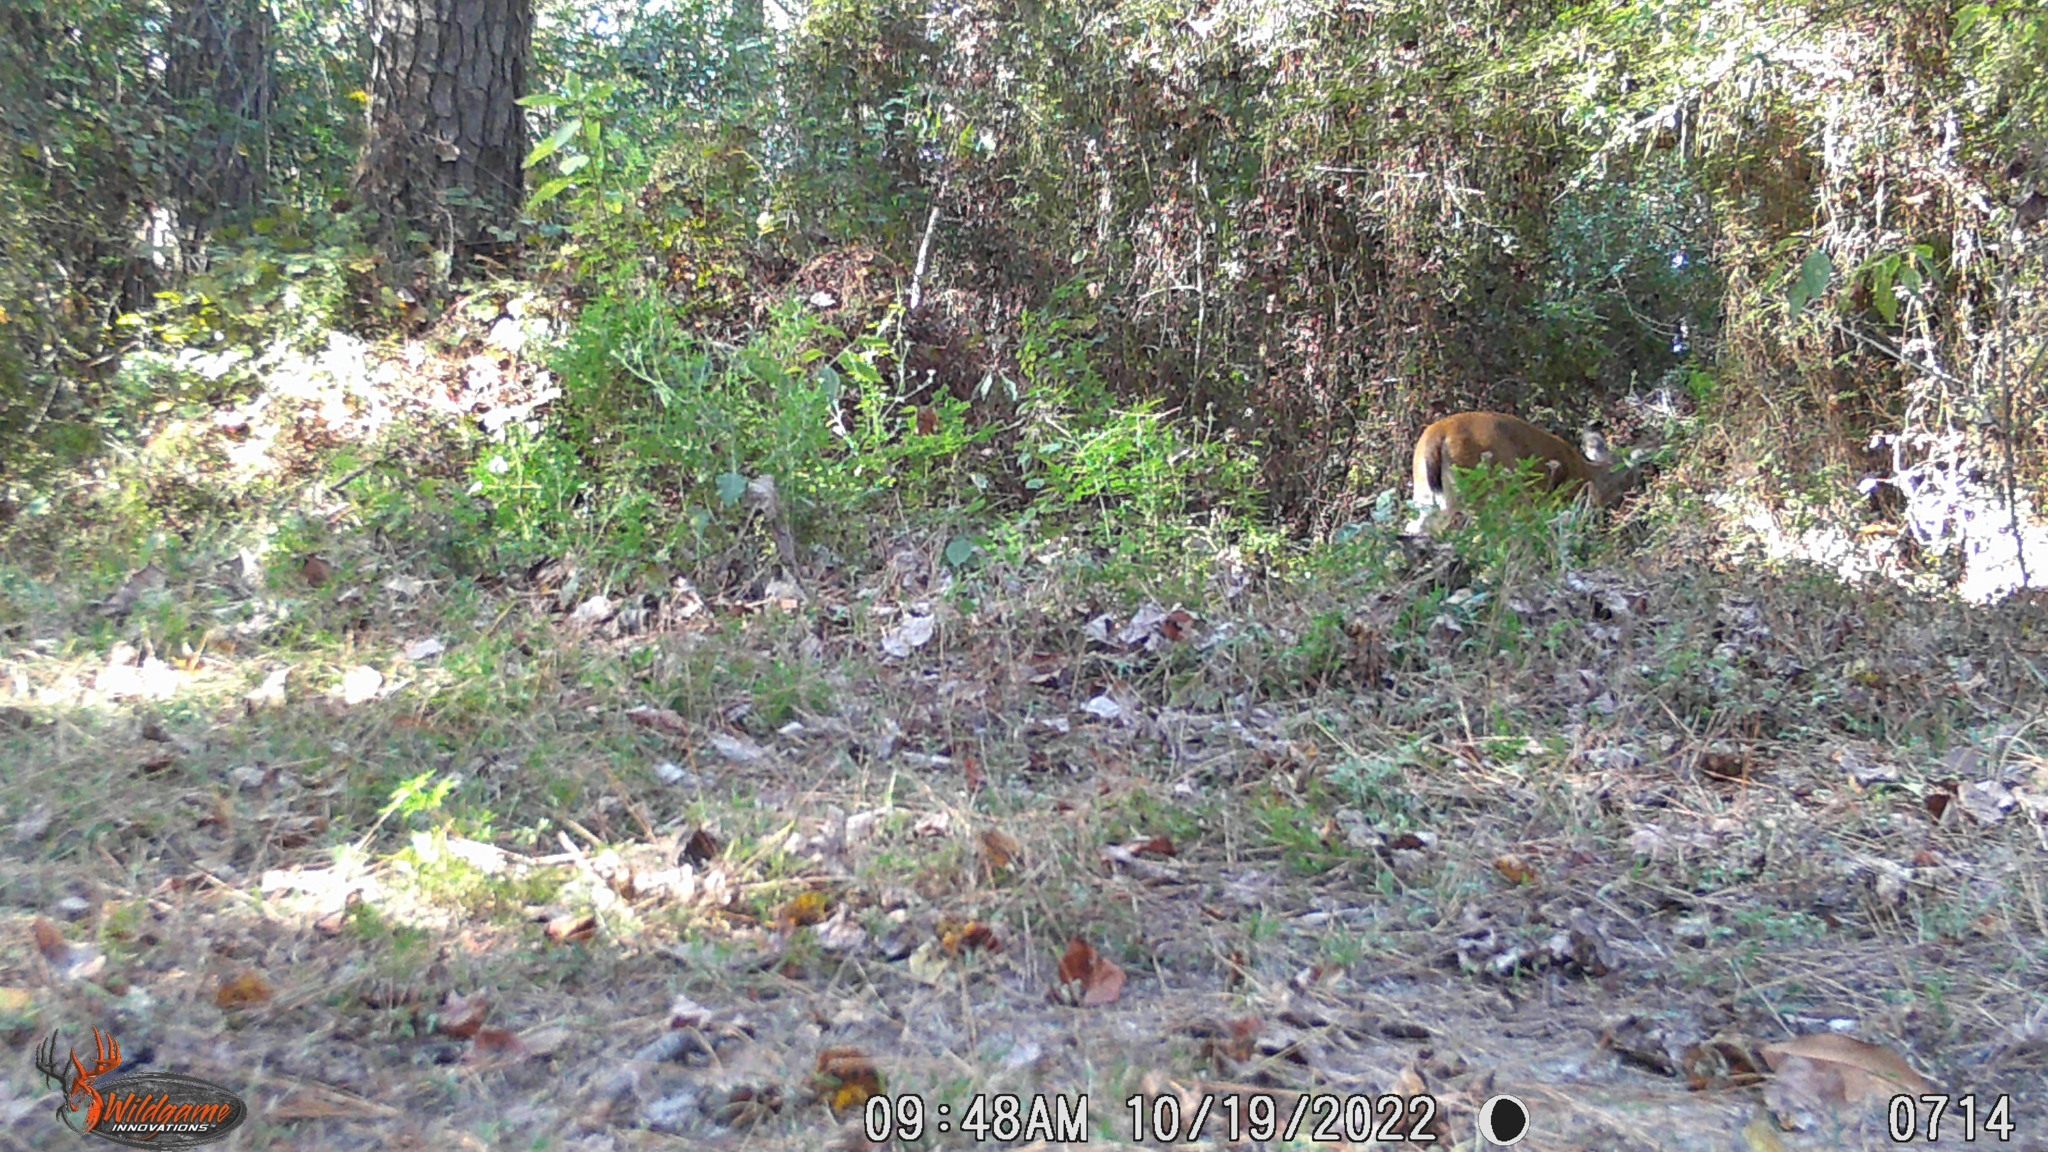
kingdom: Animalia
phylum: Chordata
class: Mammalia
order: Artiodactyla
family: Cervidae
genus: Odocoileus
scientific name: Odocoileus virginianus
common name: White-tailed deer
